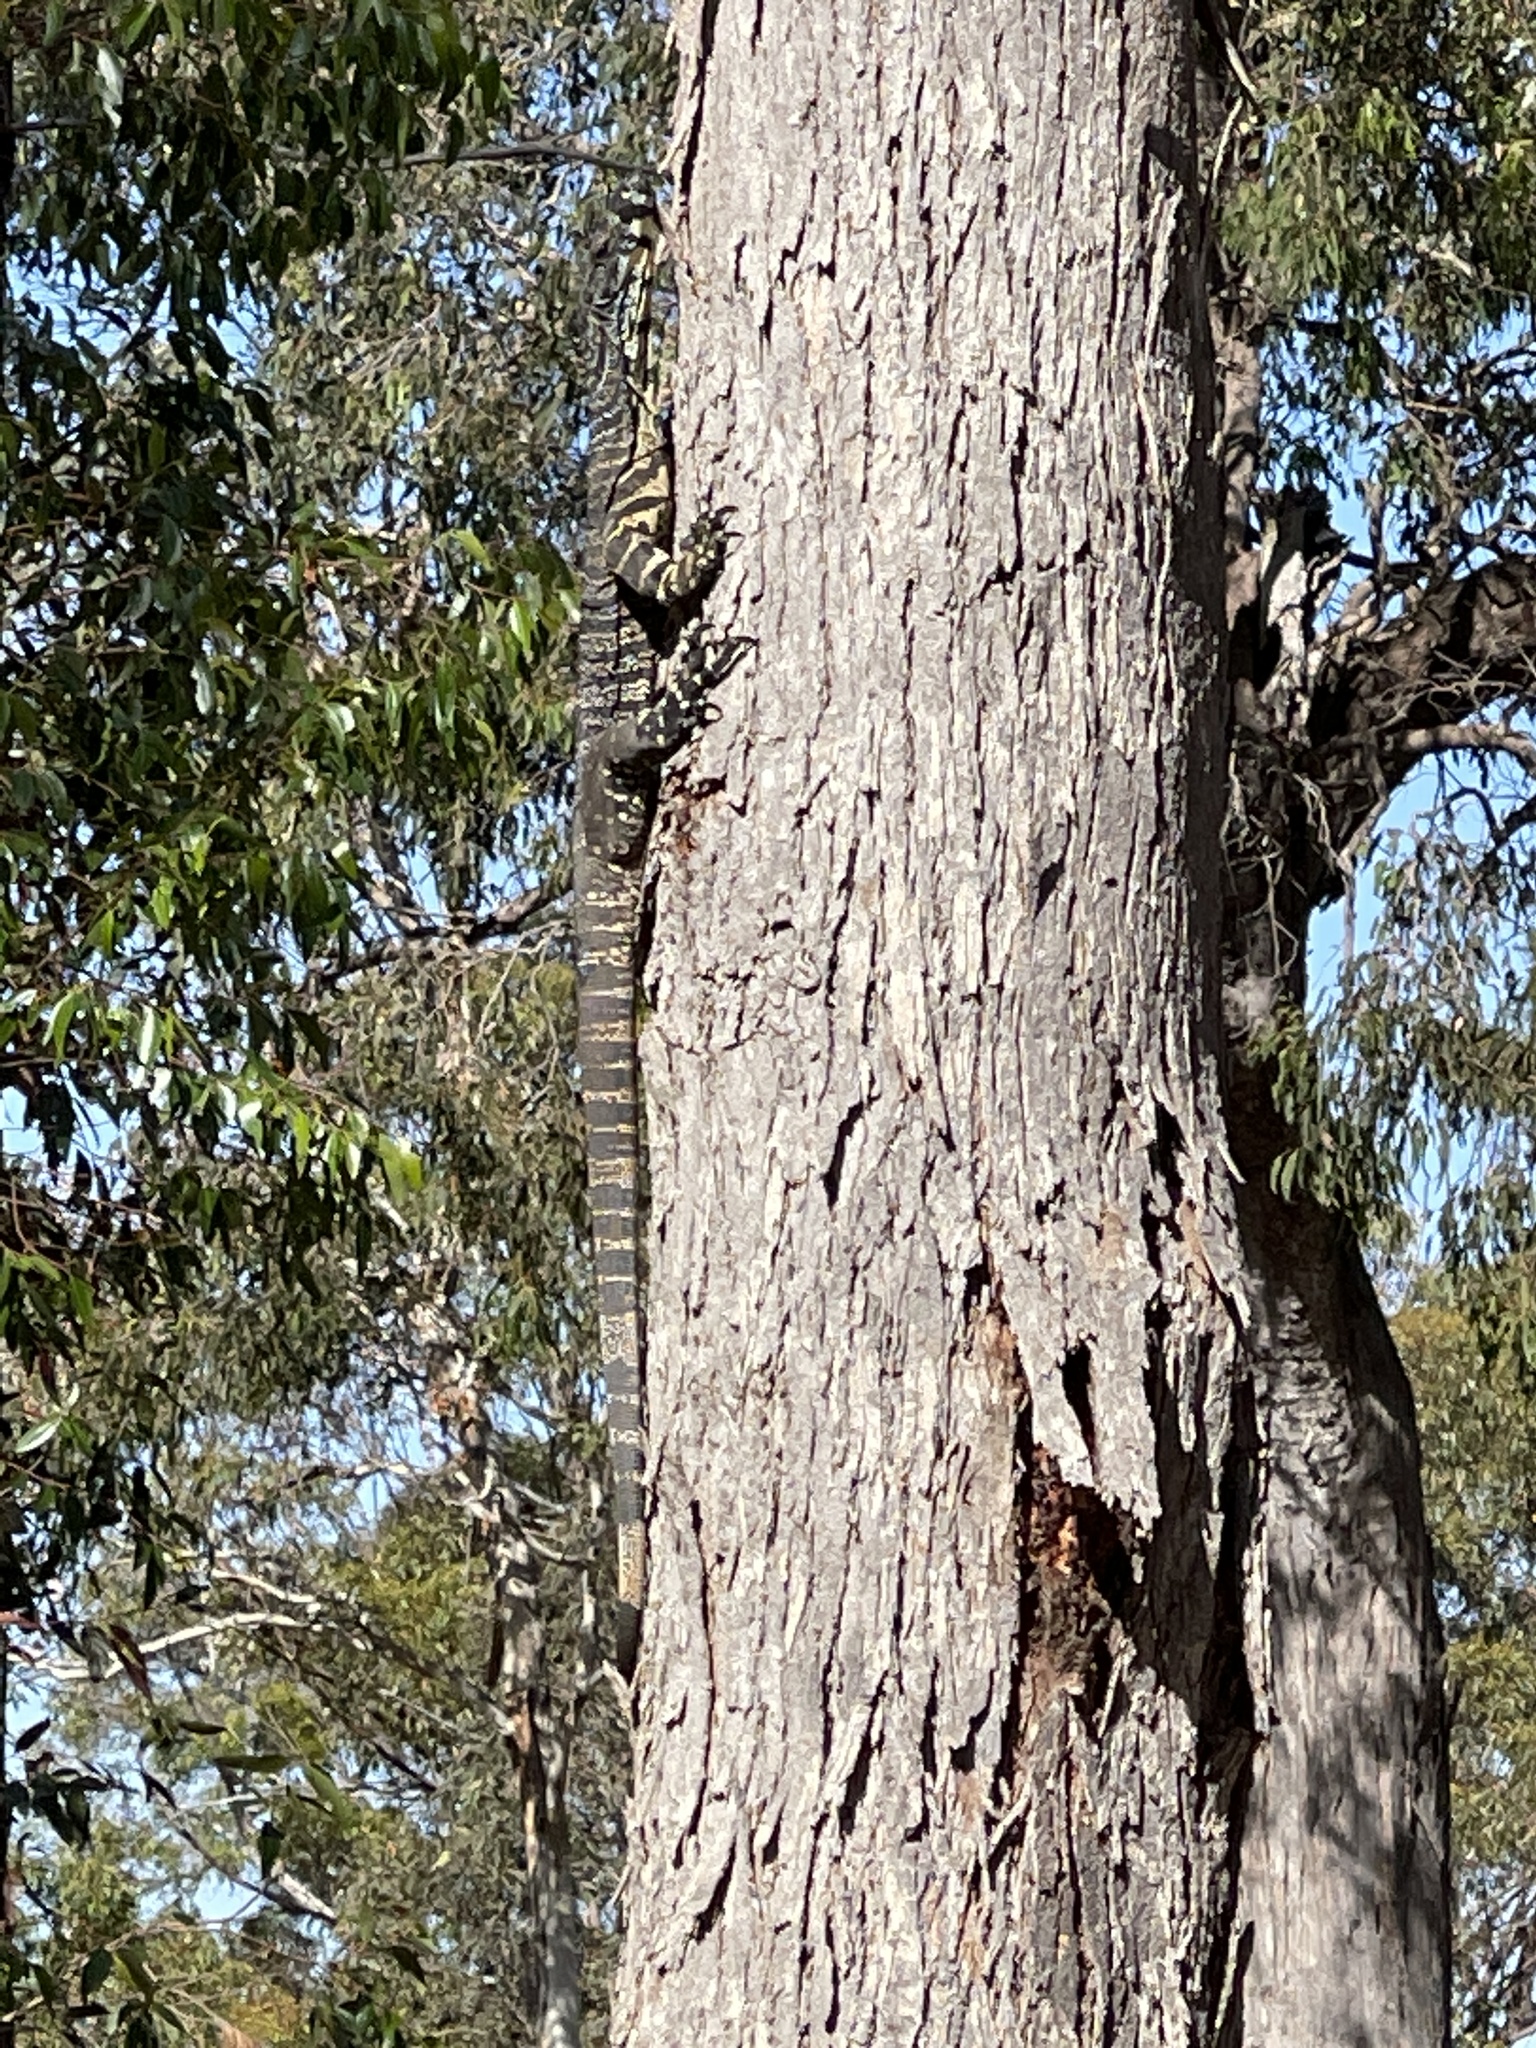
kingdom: Animalia
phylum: Chordata
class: Squamata
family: Varanidae
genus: Varanus
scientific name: Varanus varius
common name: Lace monitor
